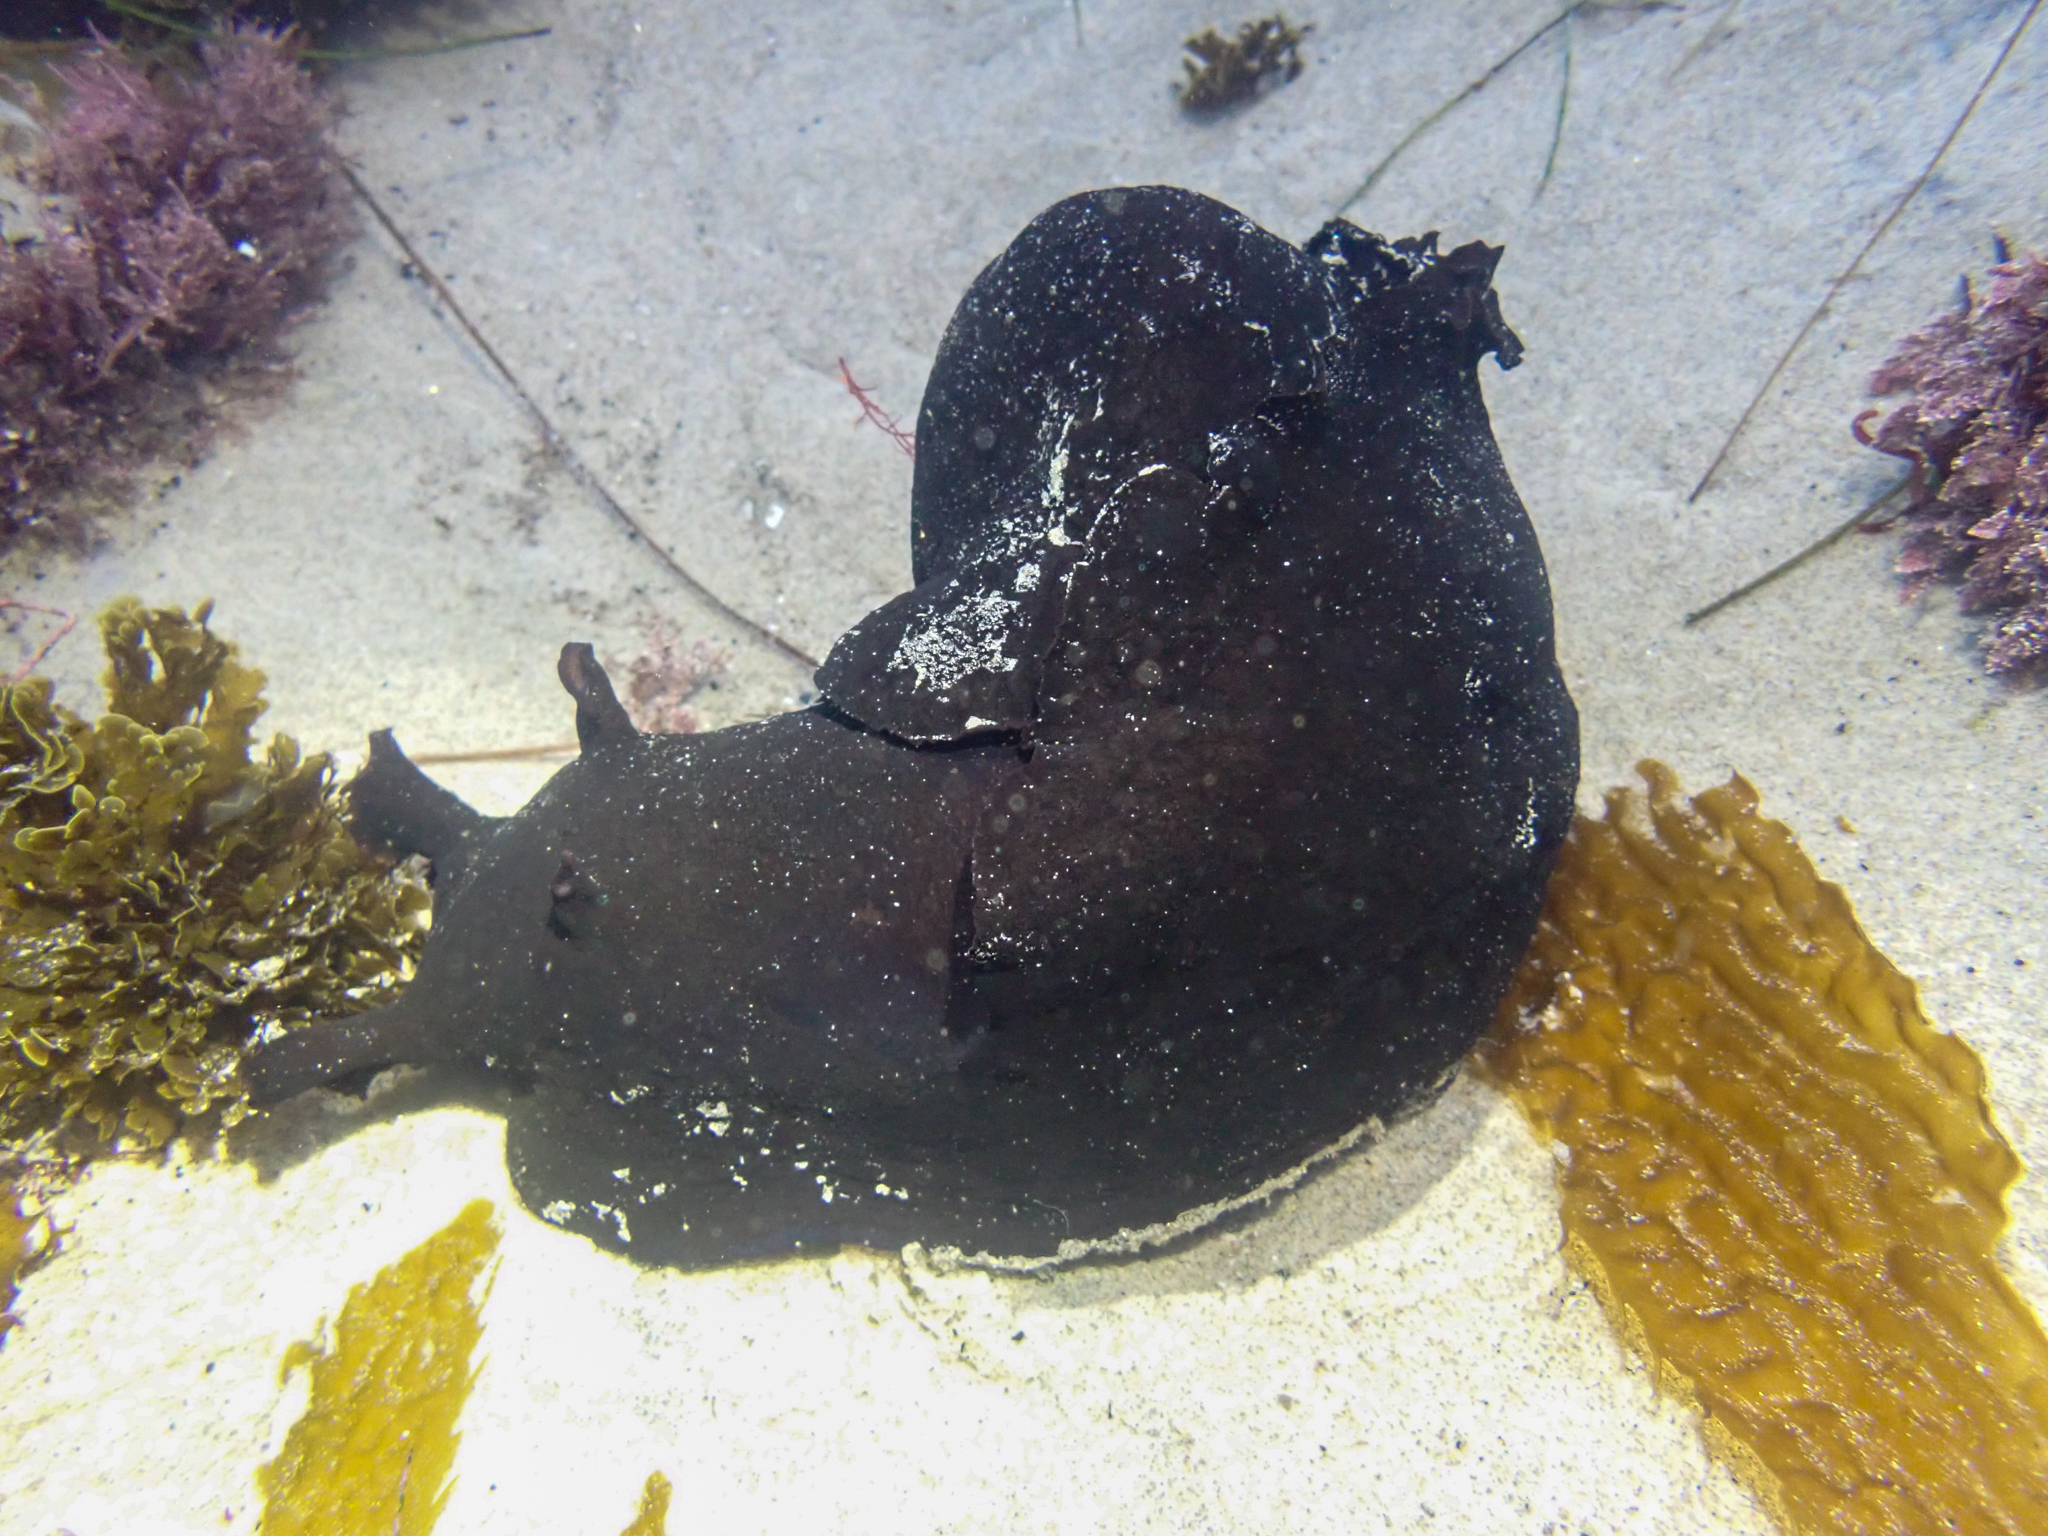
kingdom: Animalia
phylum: Mollusca
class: Gastropoda
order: Aplysiida
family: Aplysiidae
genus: Aplysia
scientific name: Aplysia vaccaria
